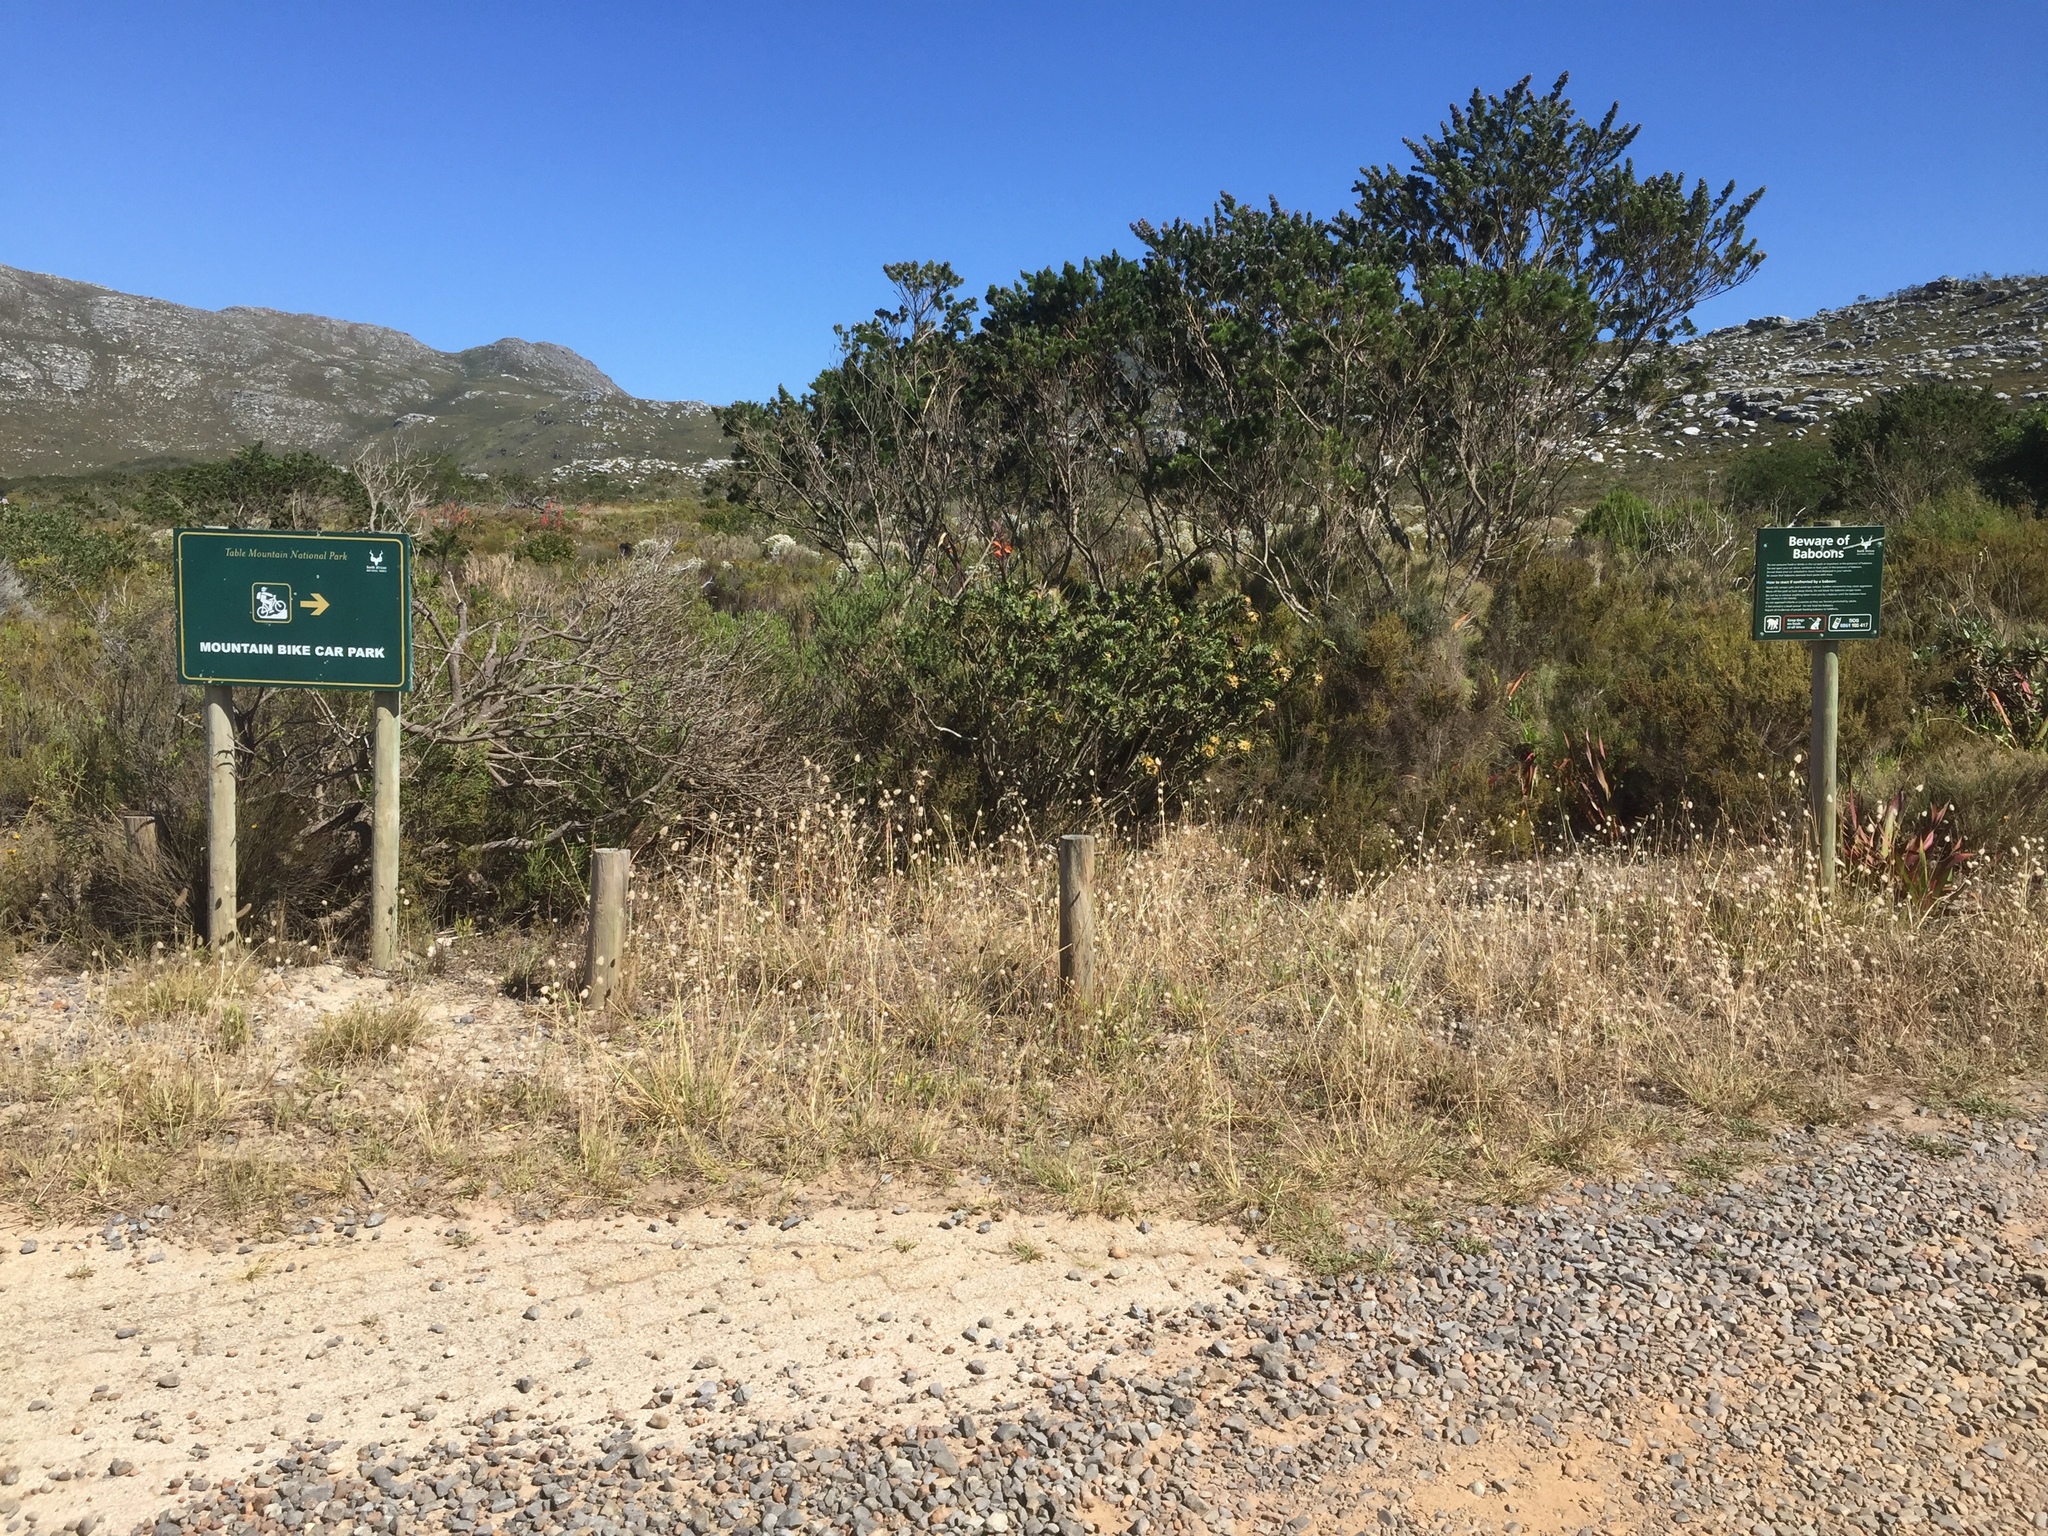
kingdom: Plantae
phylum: Tracheophyta
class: Liliopsida
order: Poales
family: Poaceae
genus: Lagurus
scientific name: Lagurus ovatus
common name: Hare's-tail
